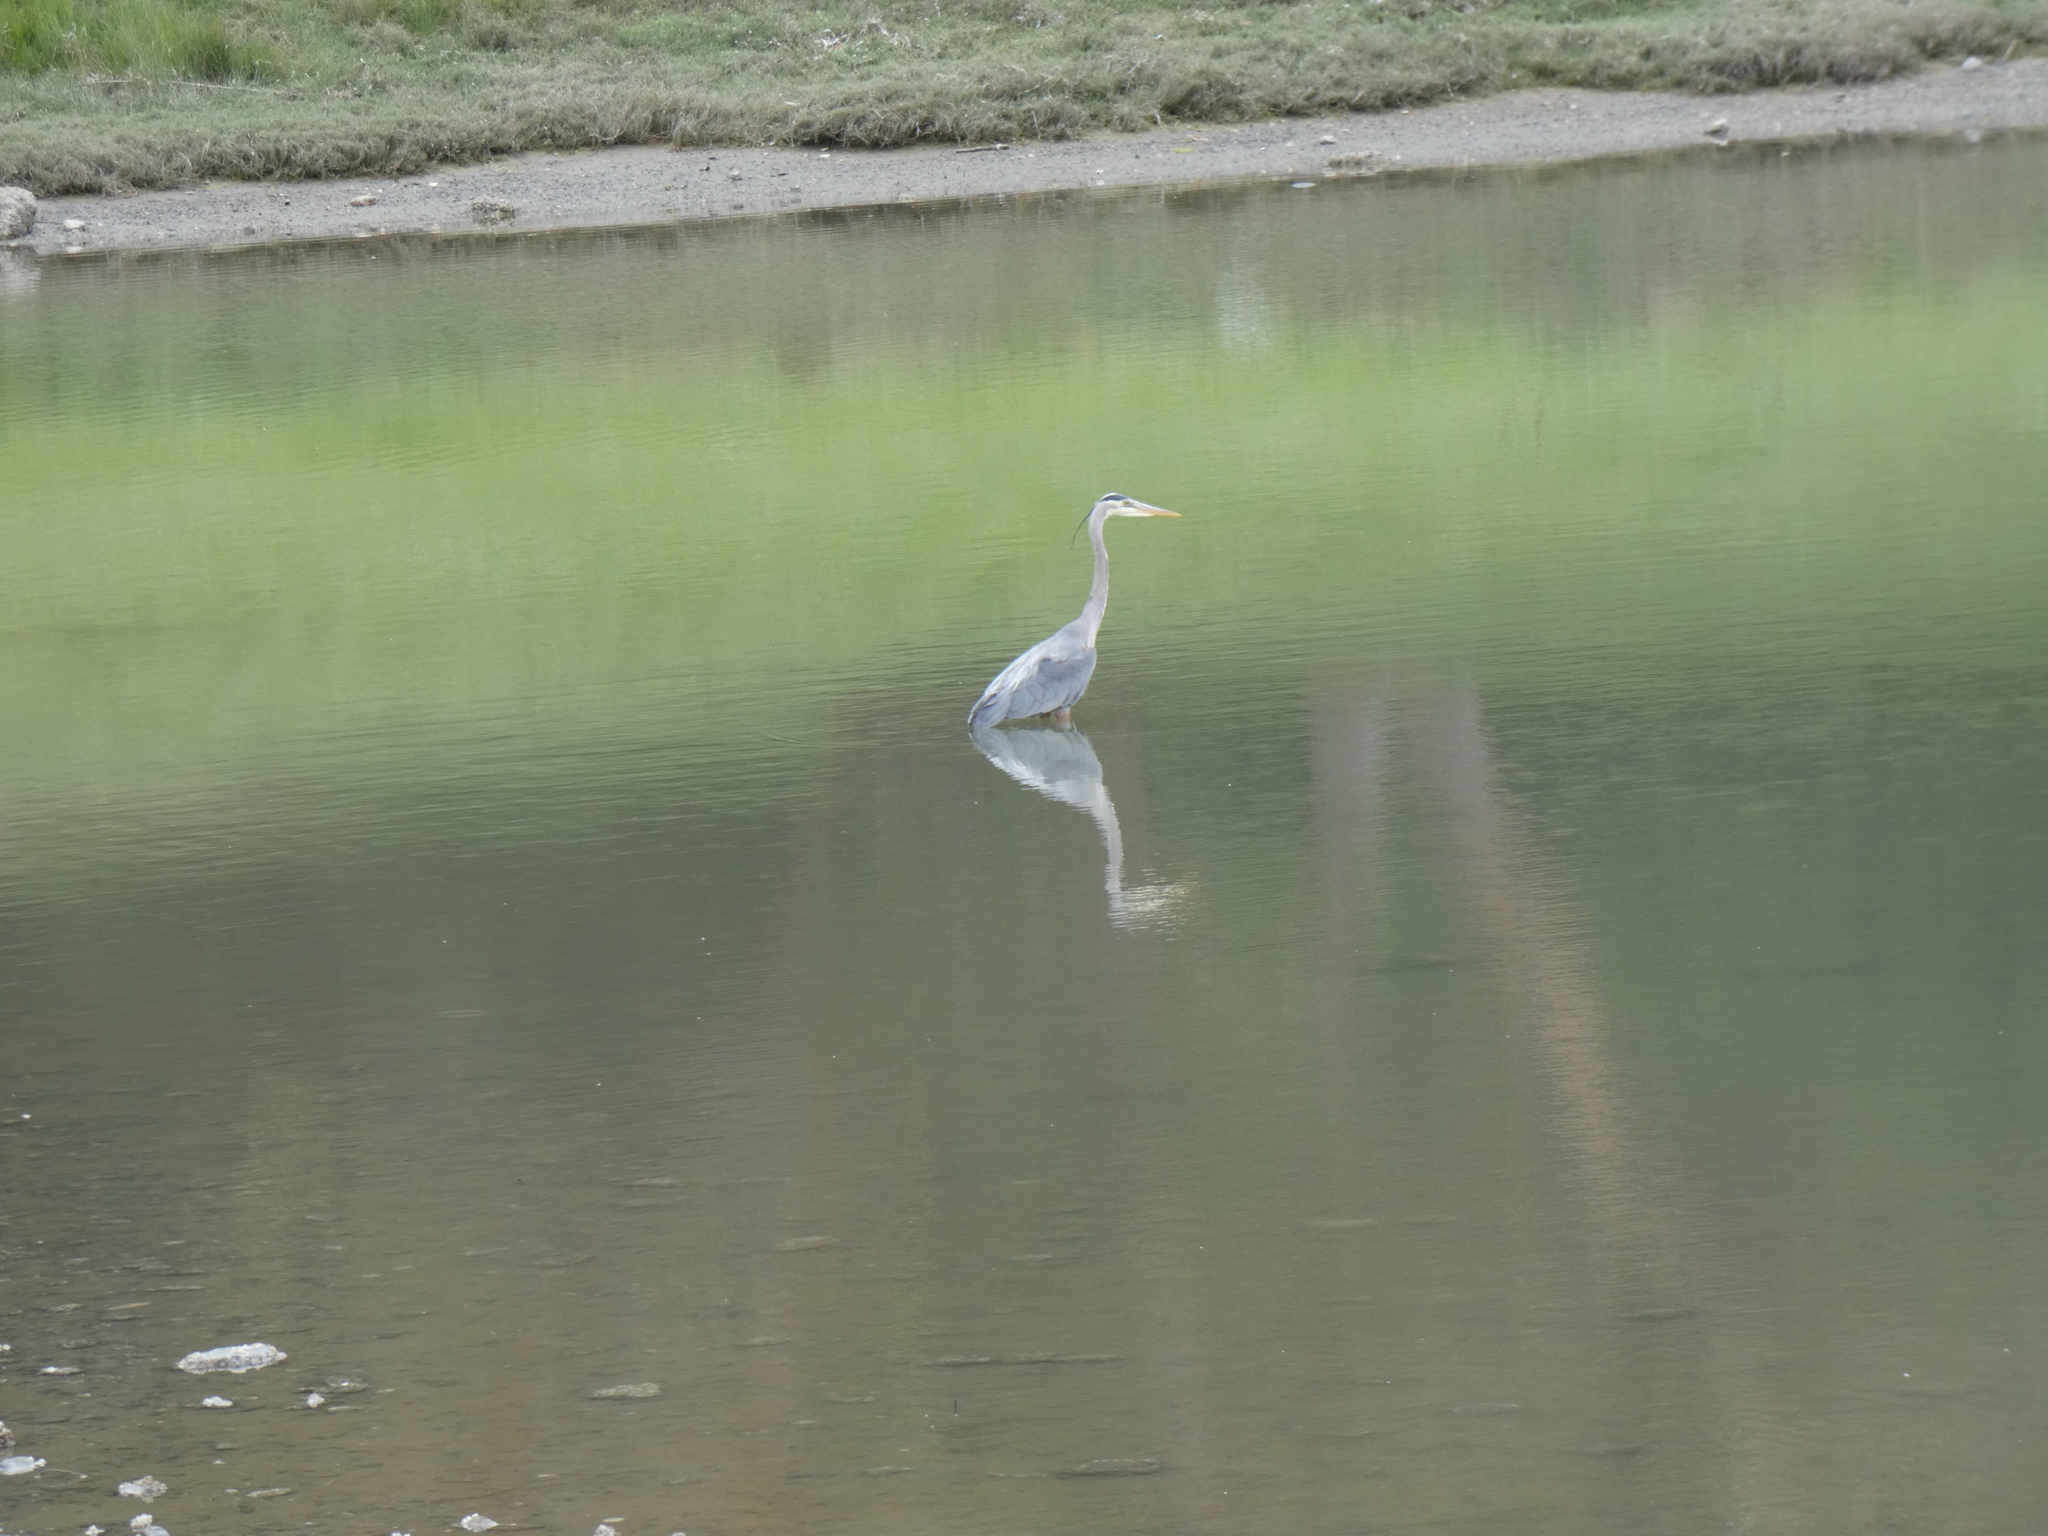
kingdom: Animalia
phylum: Chordata
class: Aves
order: Pelecaniformes
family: Ardeidae
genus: Ardea
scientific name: Ardea herodias
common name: Great blue heron
